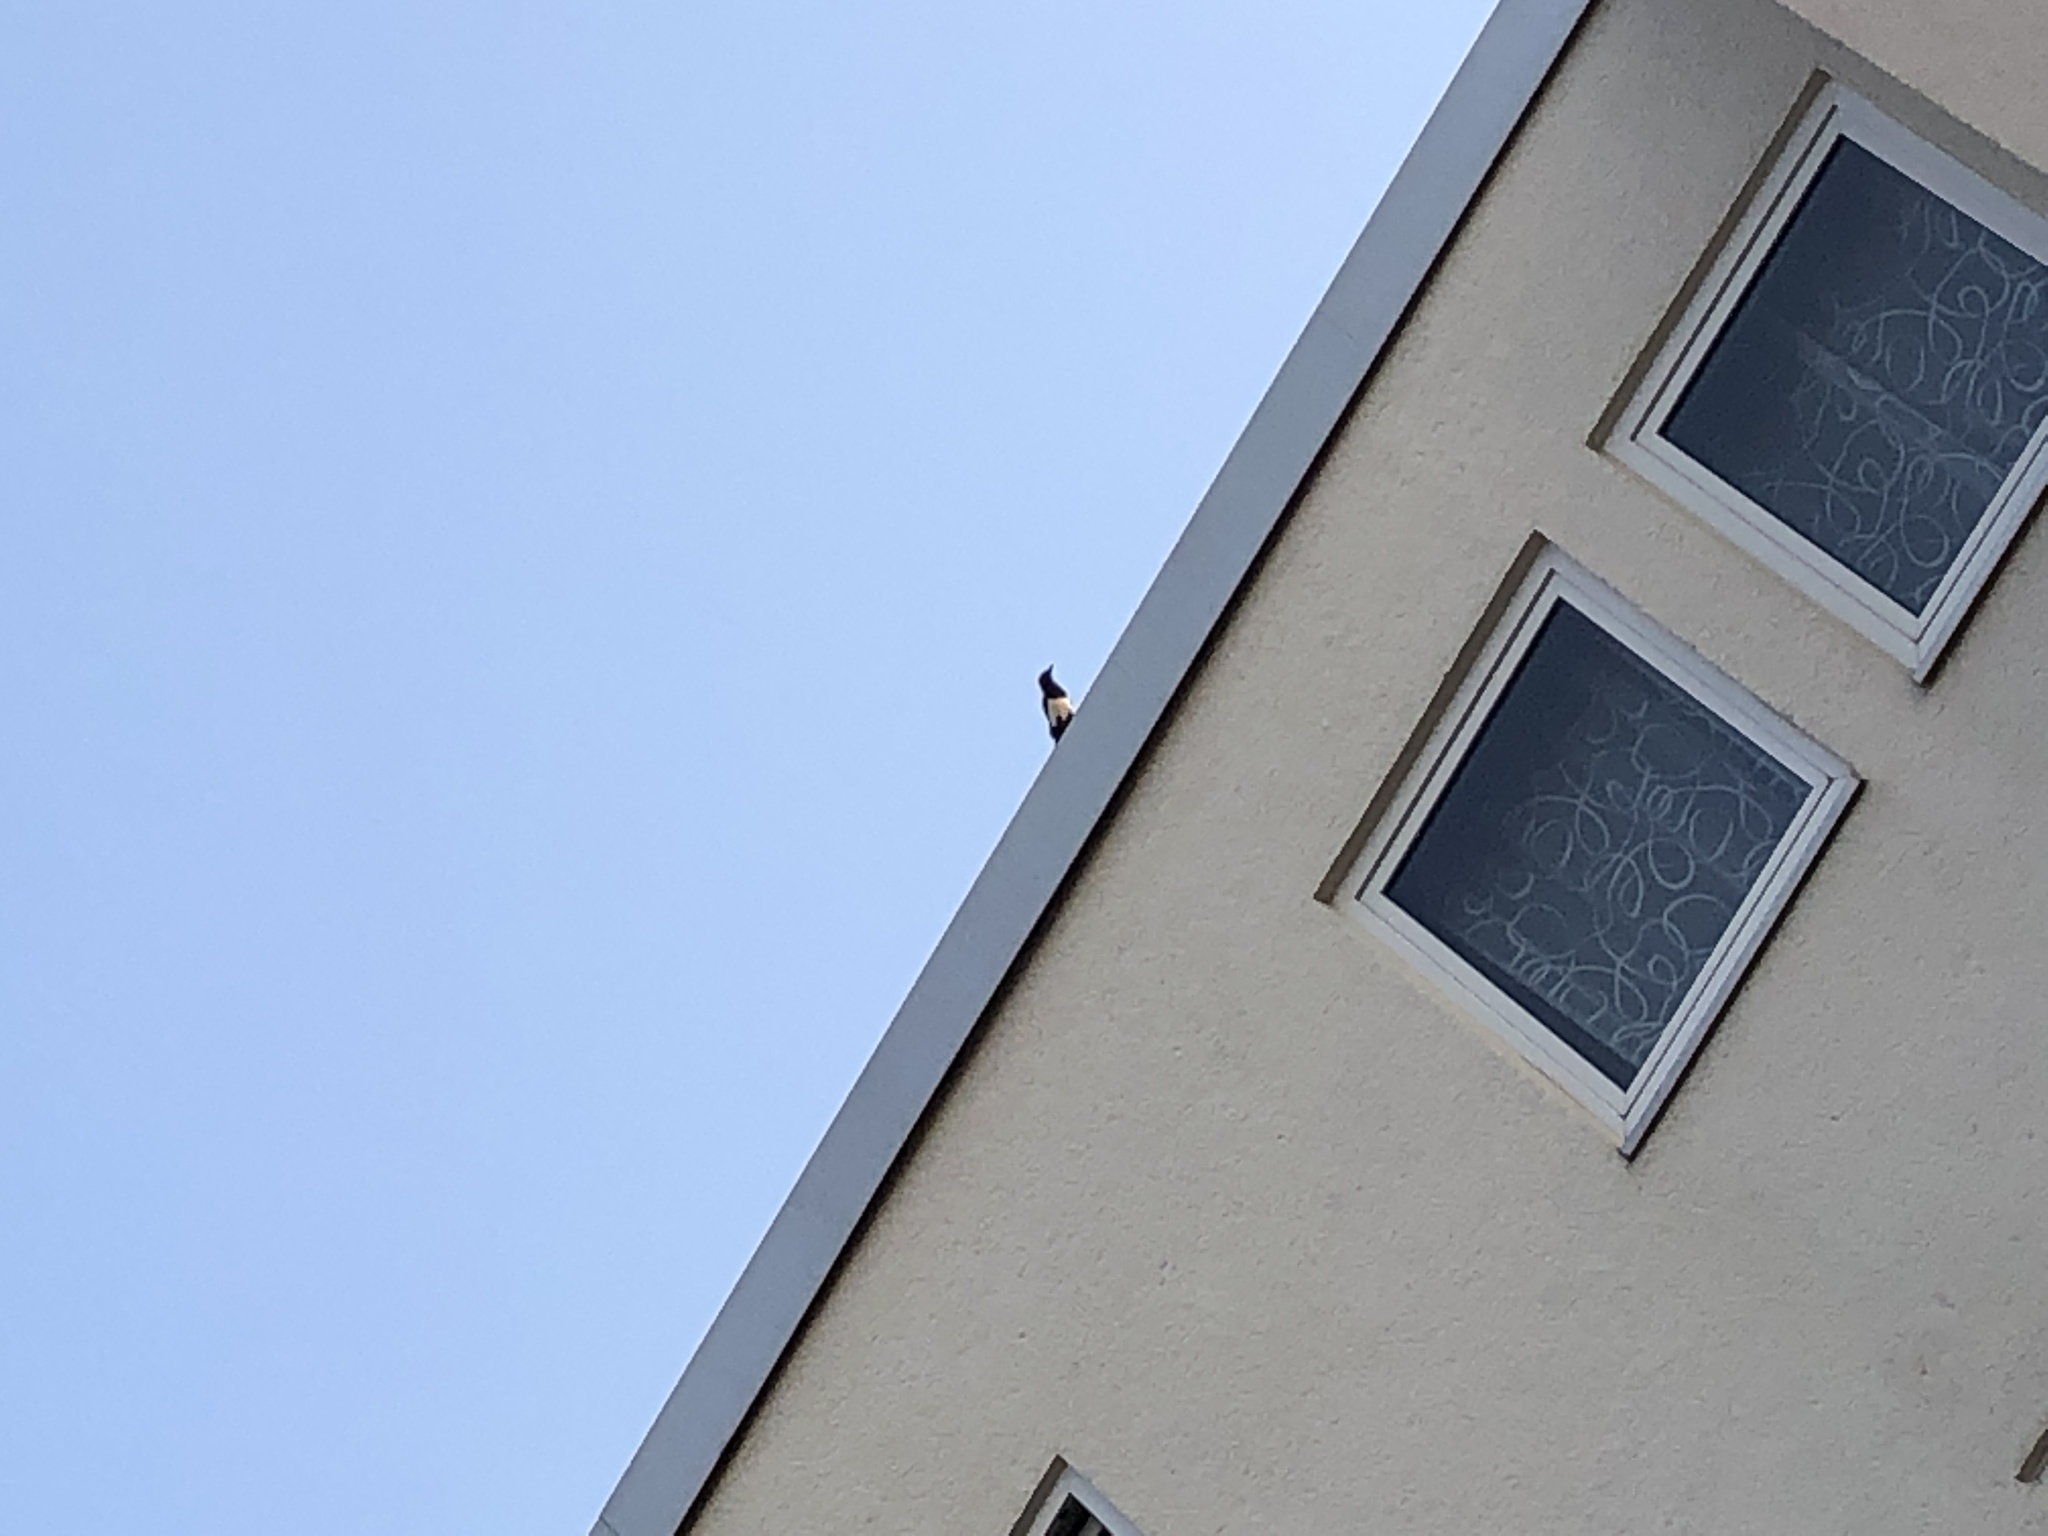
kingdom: Animalia
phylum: Chordata
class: Aves
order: Passeriformes
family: Corvidae
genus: Pica
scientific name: Pica pica
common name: Eurasian magpie
